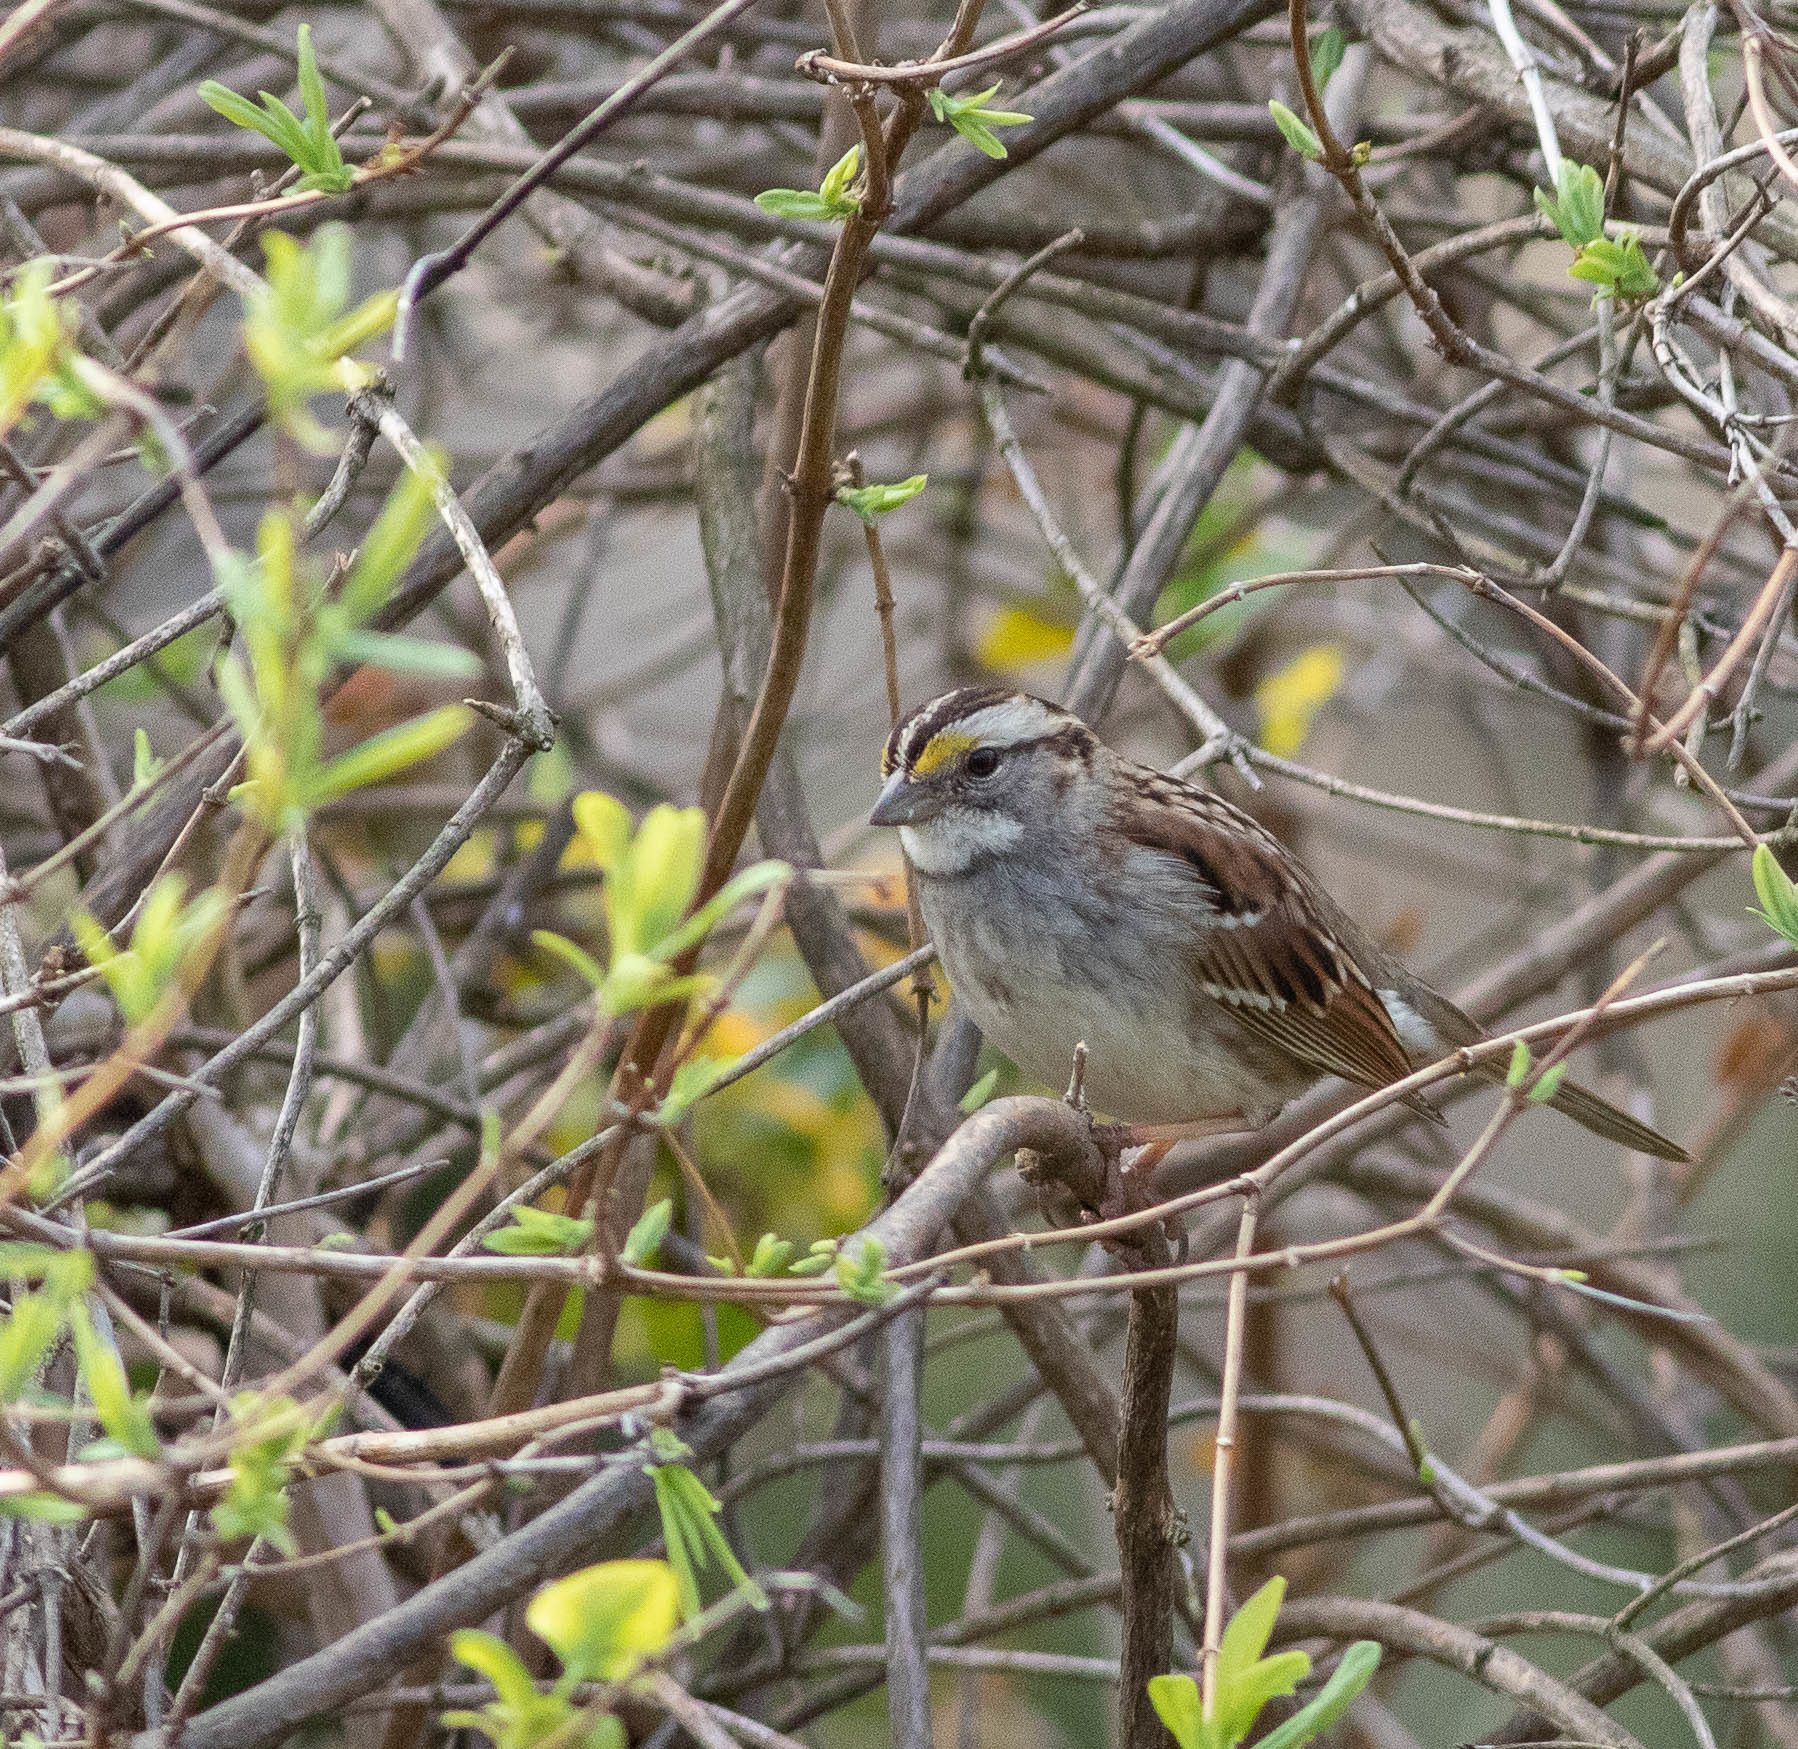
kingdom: Animalia
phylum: Chordata
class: Aves
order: Passeriformes
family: Passerellidae
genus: Zonotrichia
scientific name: Zonotrichia albicollis
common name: White-throated sparrow
